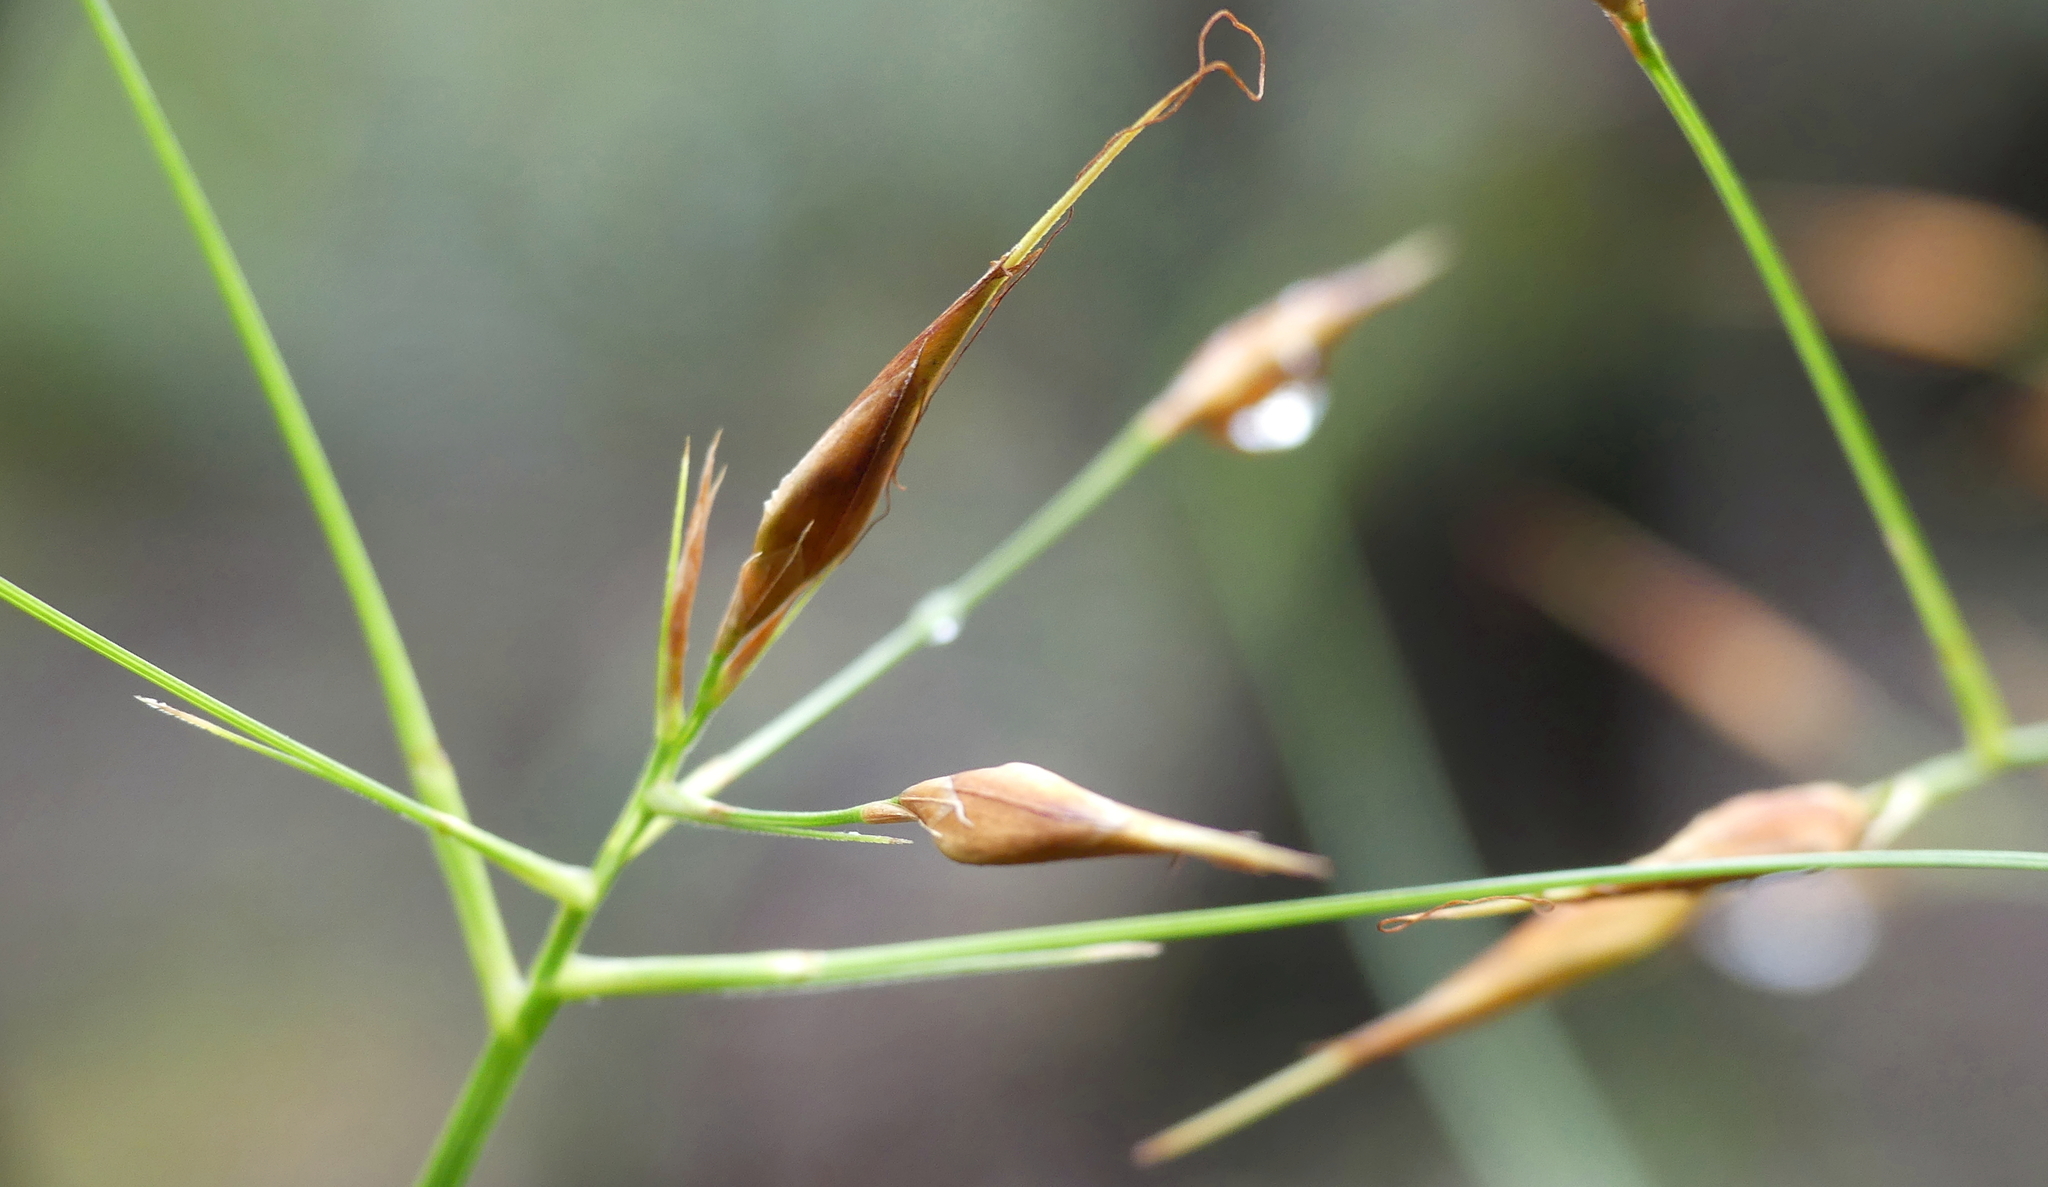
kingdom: Plantae
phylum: Tracheophyta
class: Liliopsida
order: Poales
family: Cyperaceae
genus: Rhynchospora
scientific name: Rhynchospora careyana
